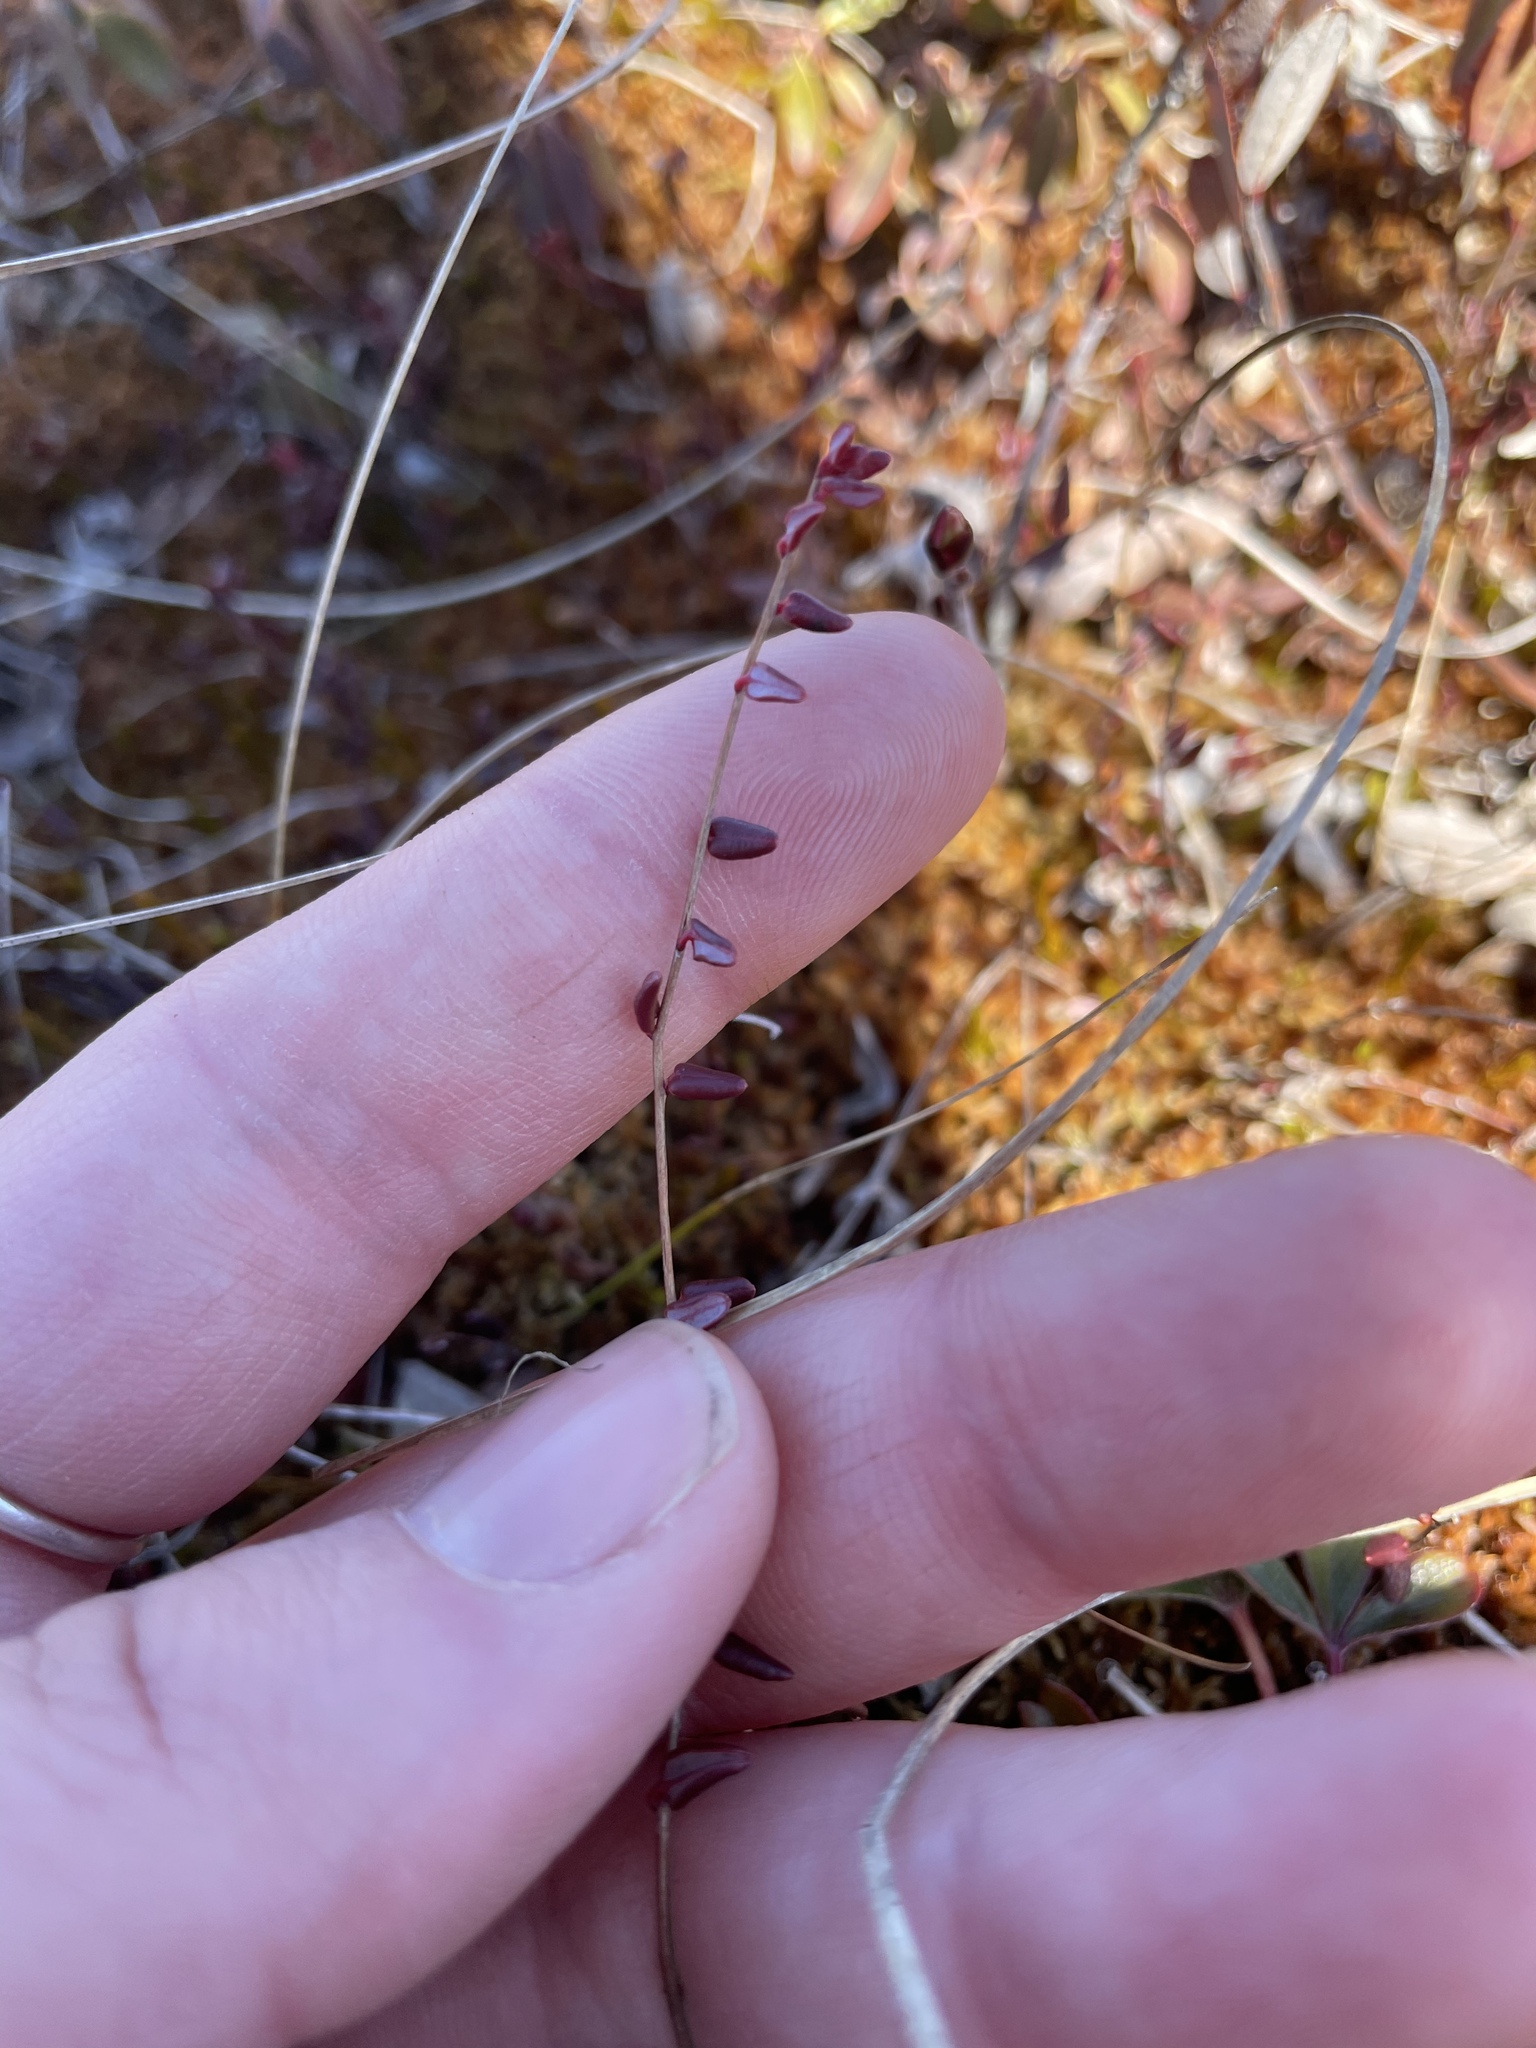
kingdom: Plantae
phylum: Tracheophyta
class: Magnoliopsida
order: Ericales
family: Ericaceae
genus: Vaccinium
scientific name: Vaccinium oxycoccos
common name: Cranberry
